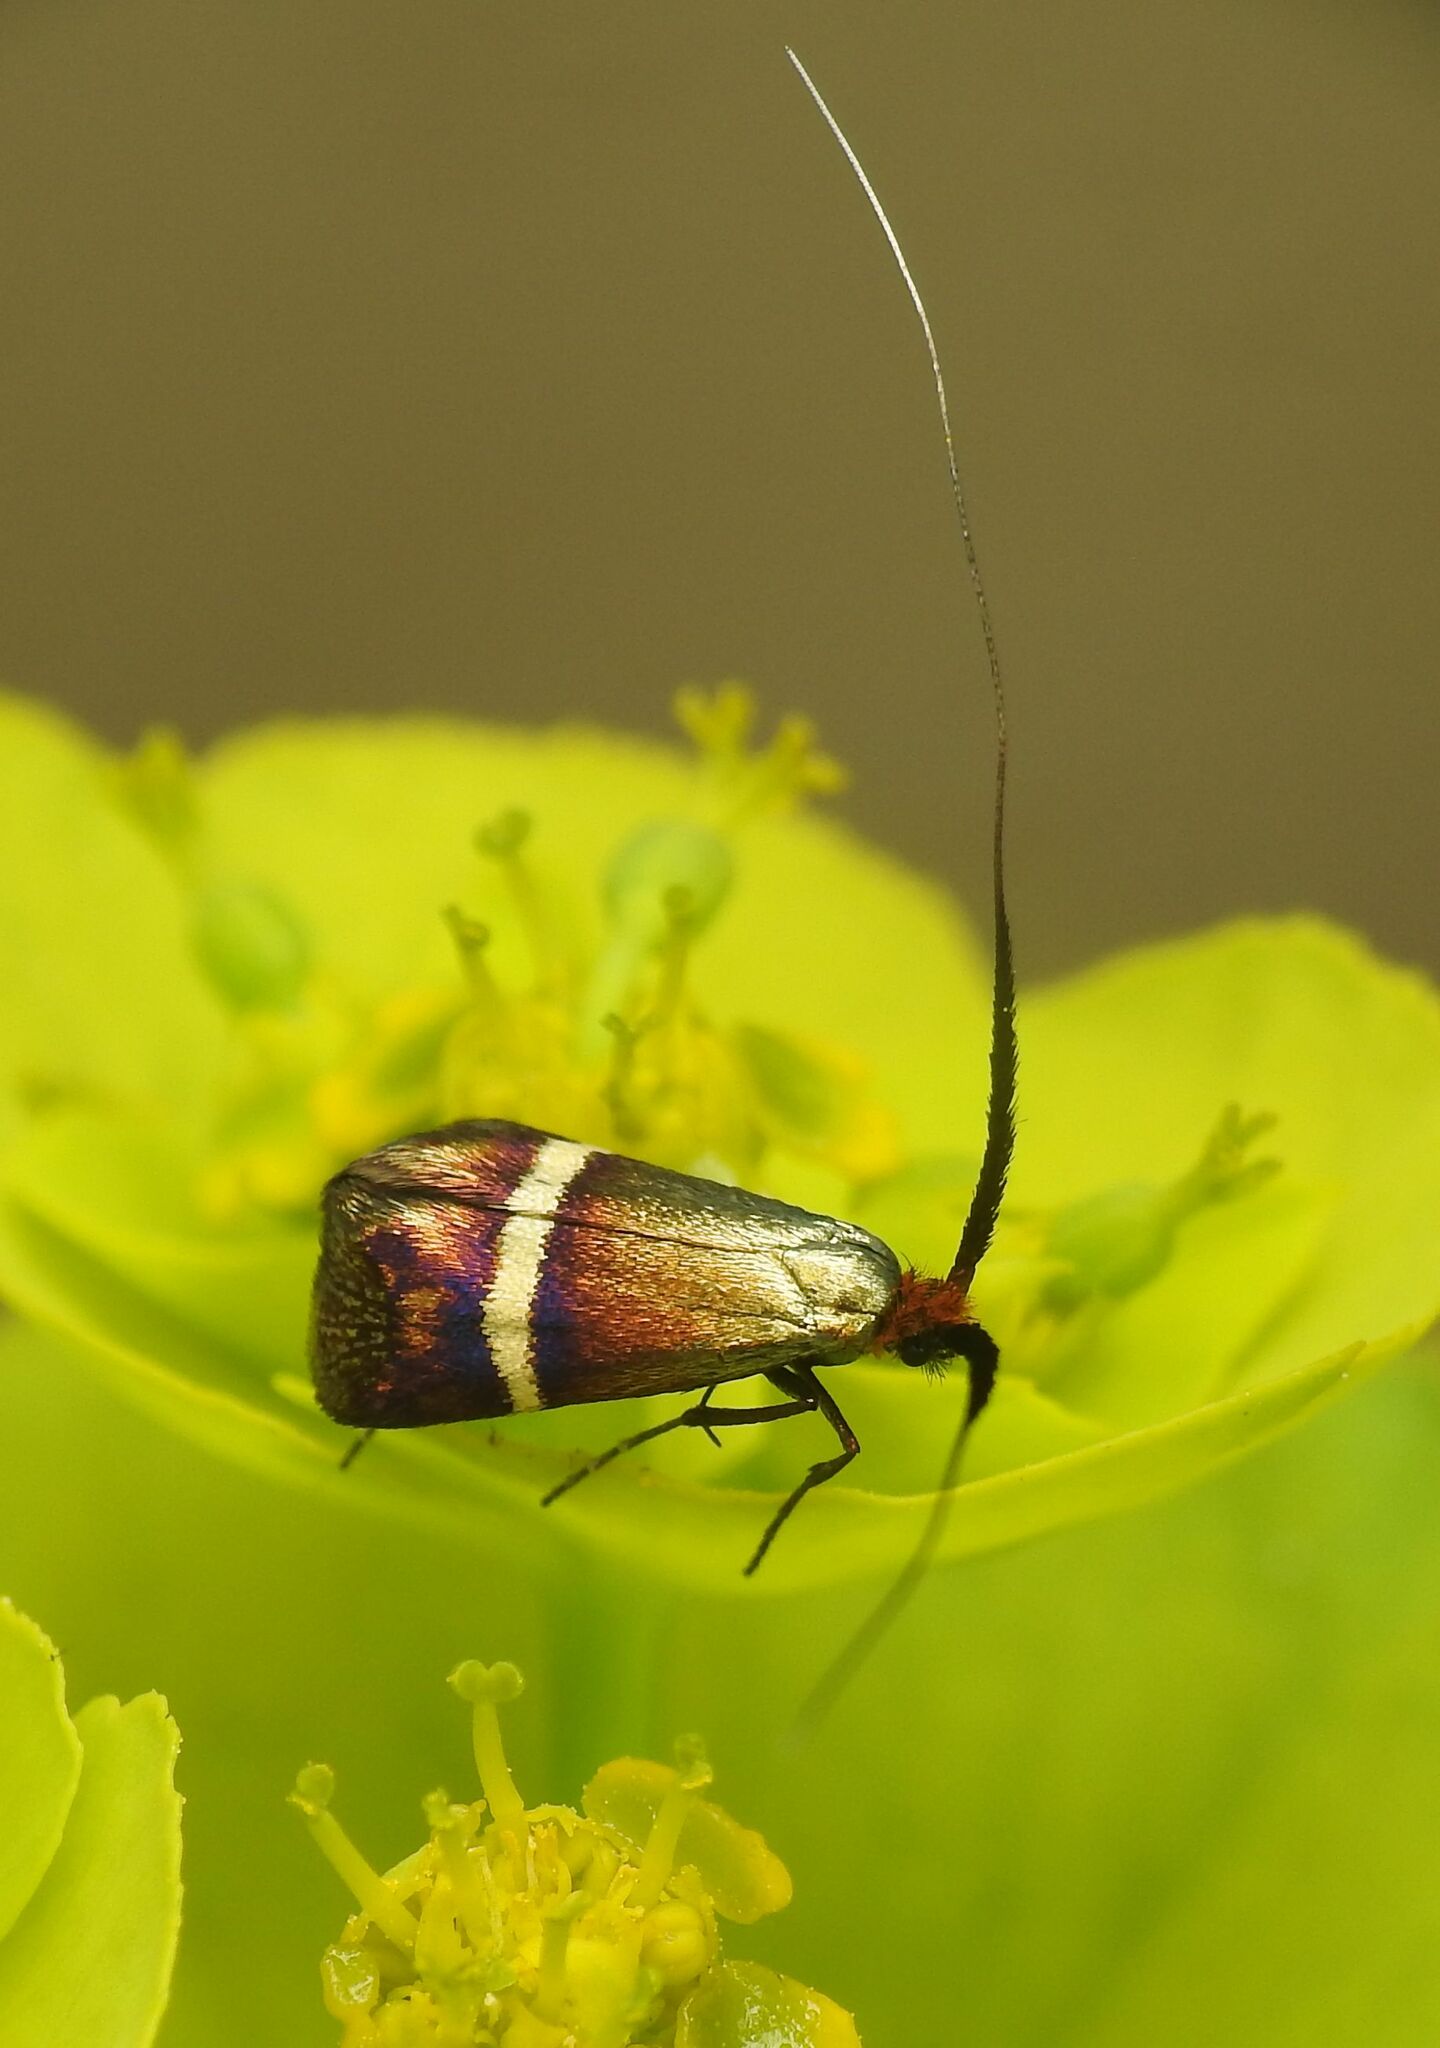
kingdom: Animalia
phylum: Arthropoda
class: Insecta
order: Lepidoptera
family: Adelidae
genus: Adela
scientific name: Adela australis
